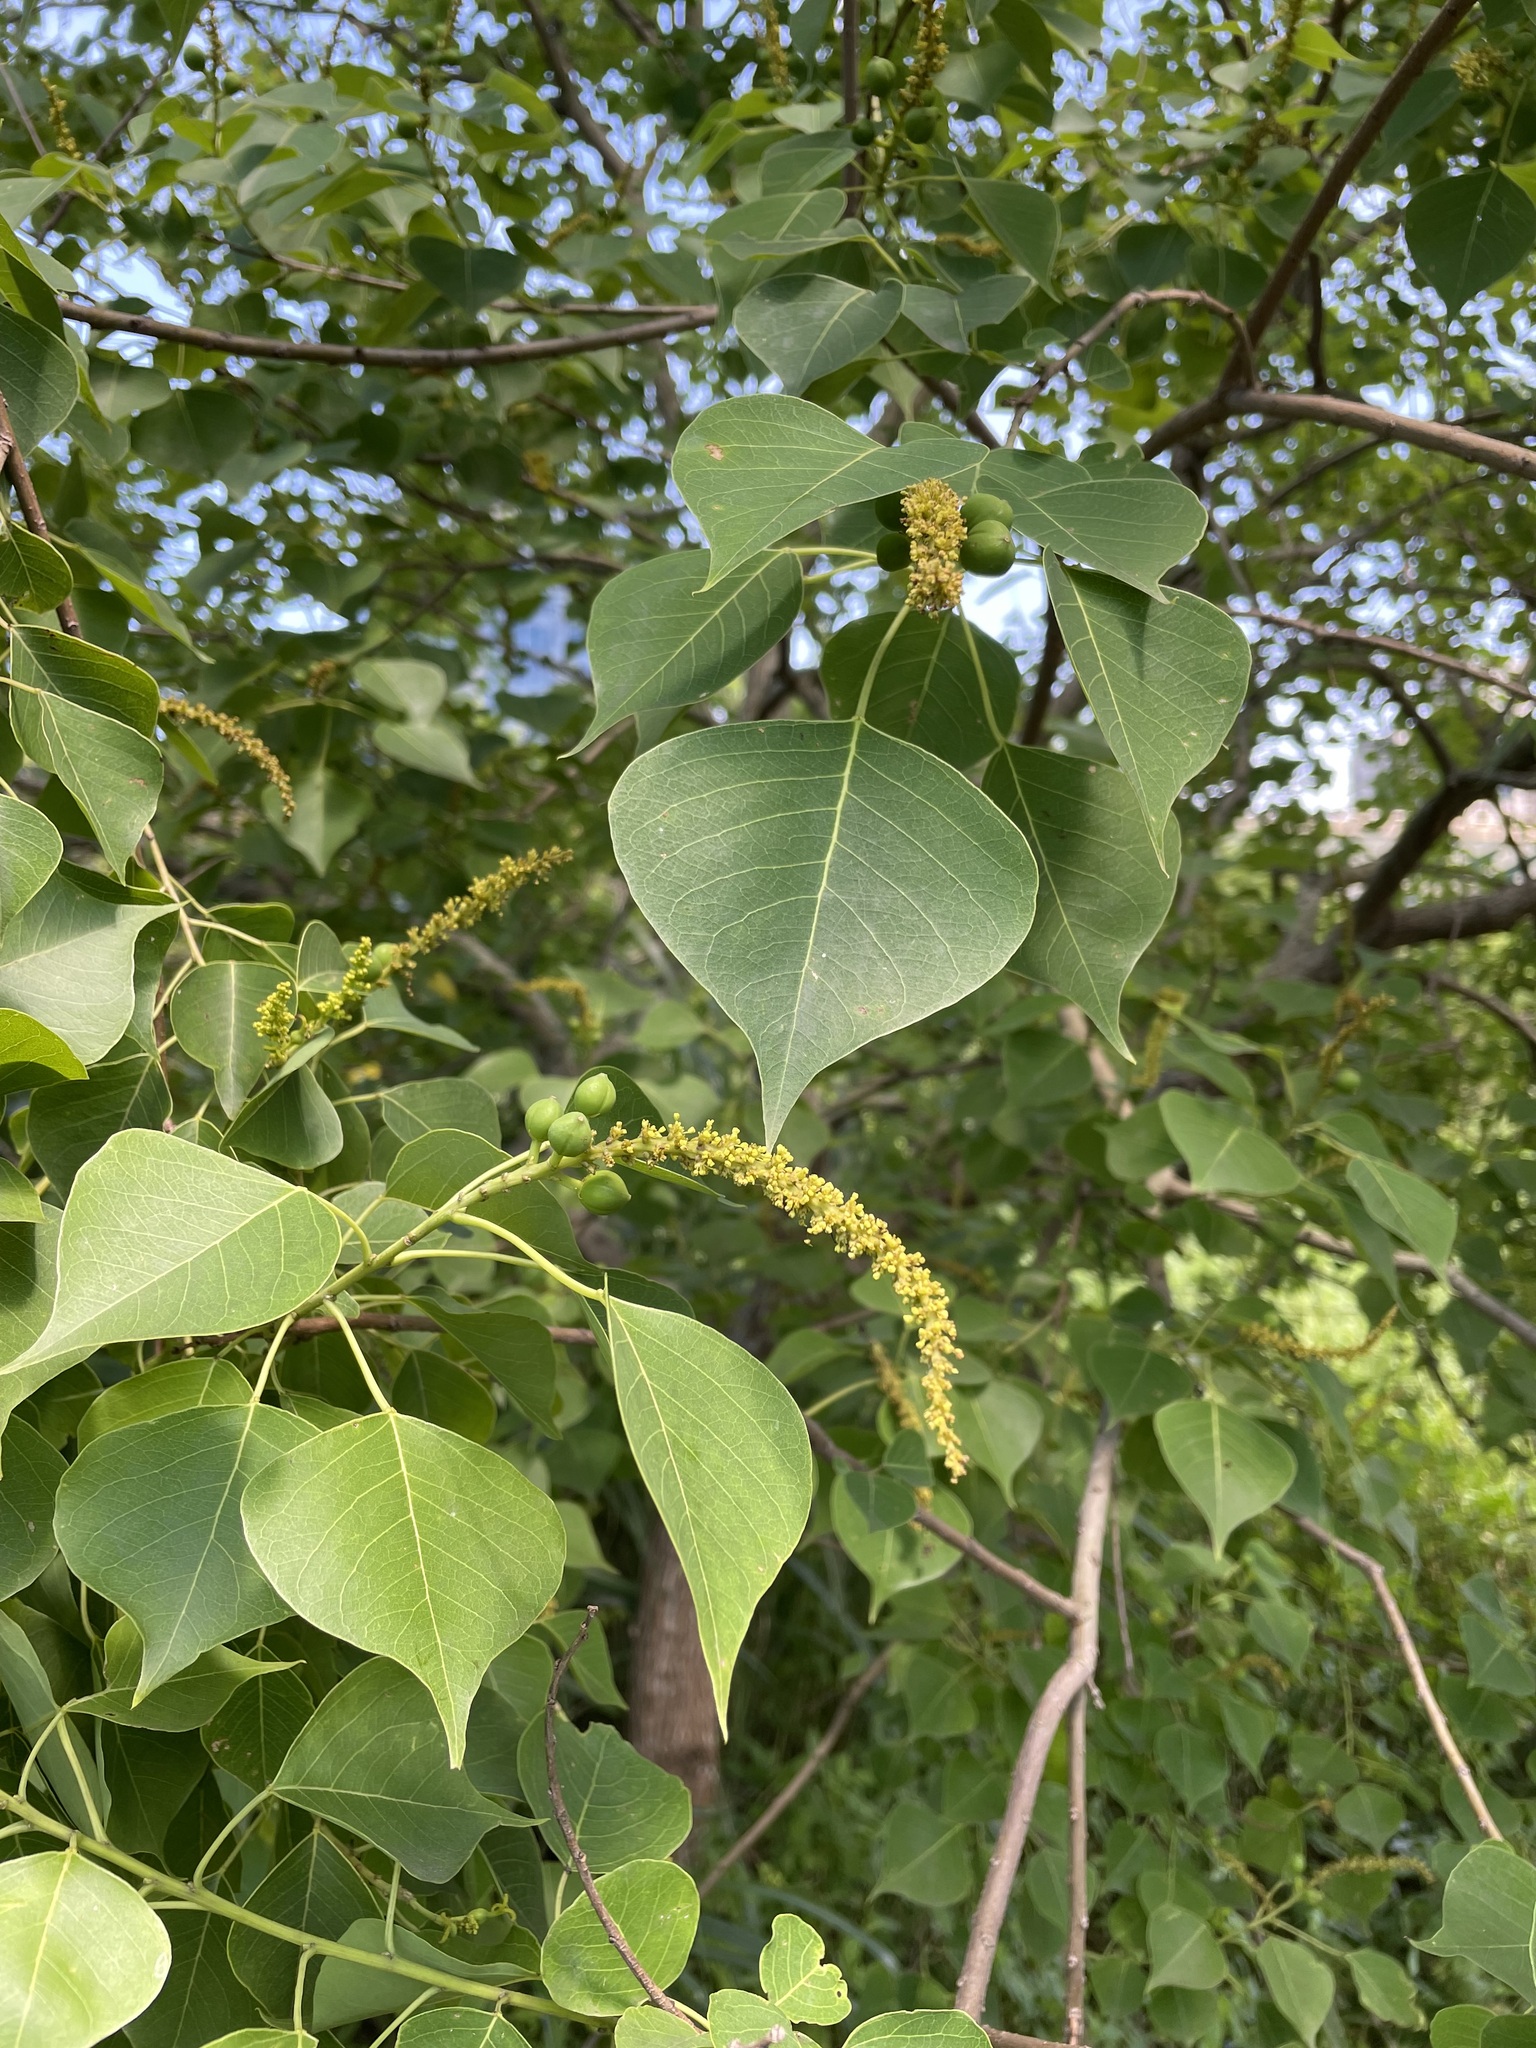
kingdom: Plantae
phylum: Tracheophyta
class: Magnoliopsida
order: Malpighiales
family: Euphorbiaceae
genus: Triadica
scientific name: Triadica sebifera
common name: Chinese tallow
